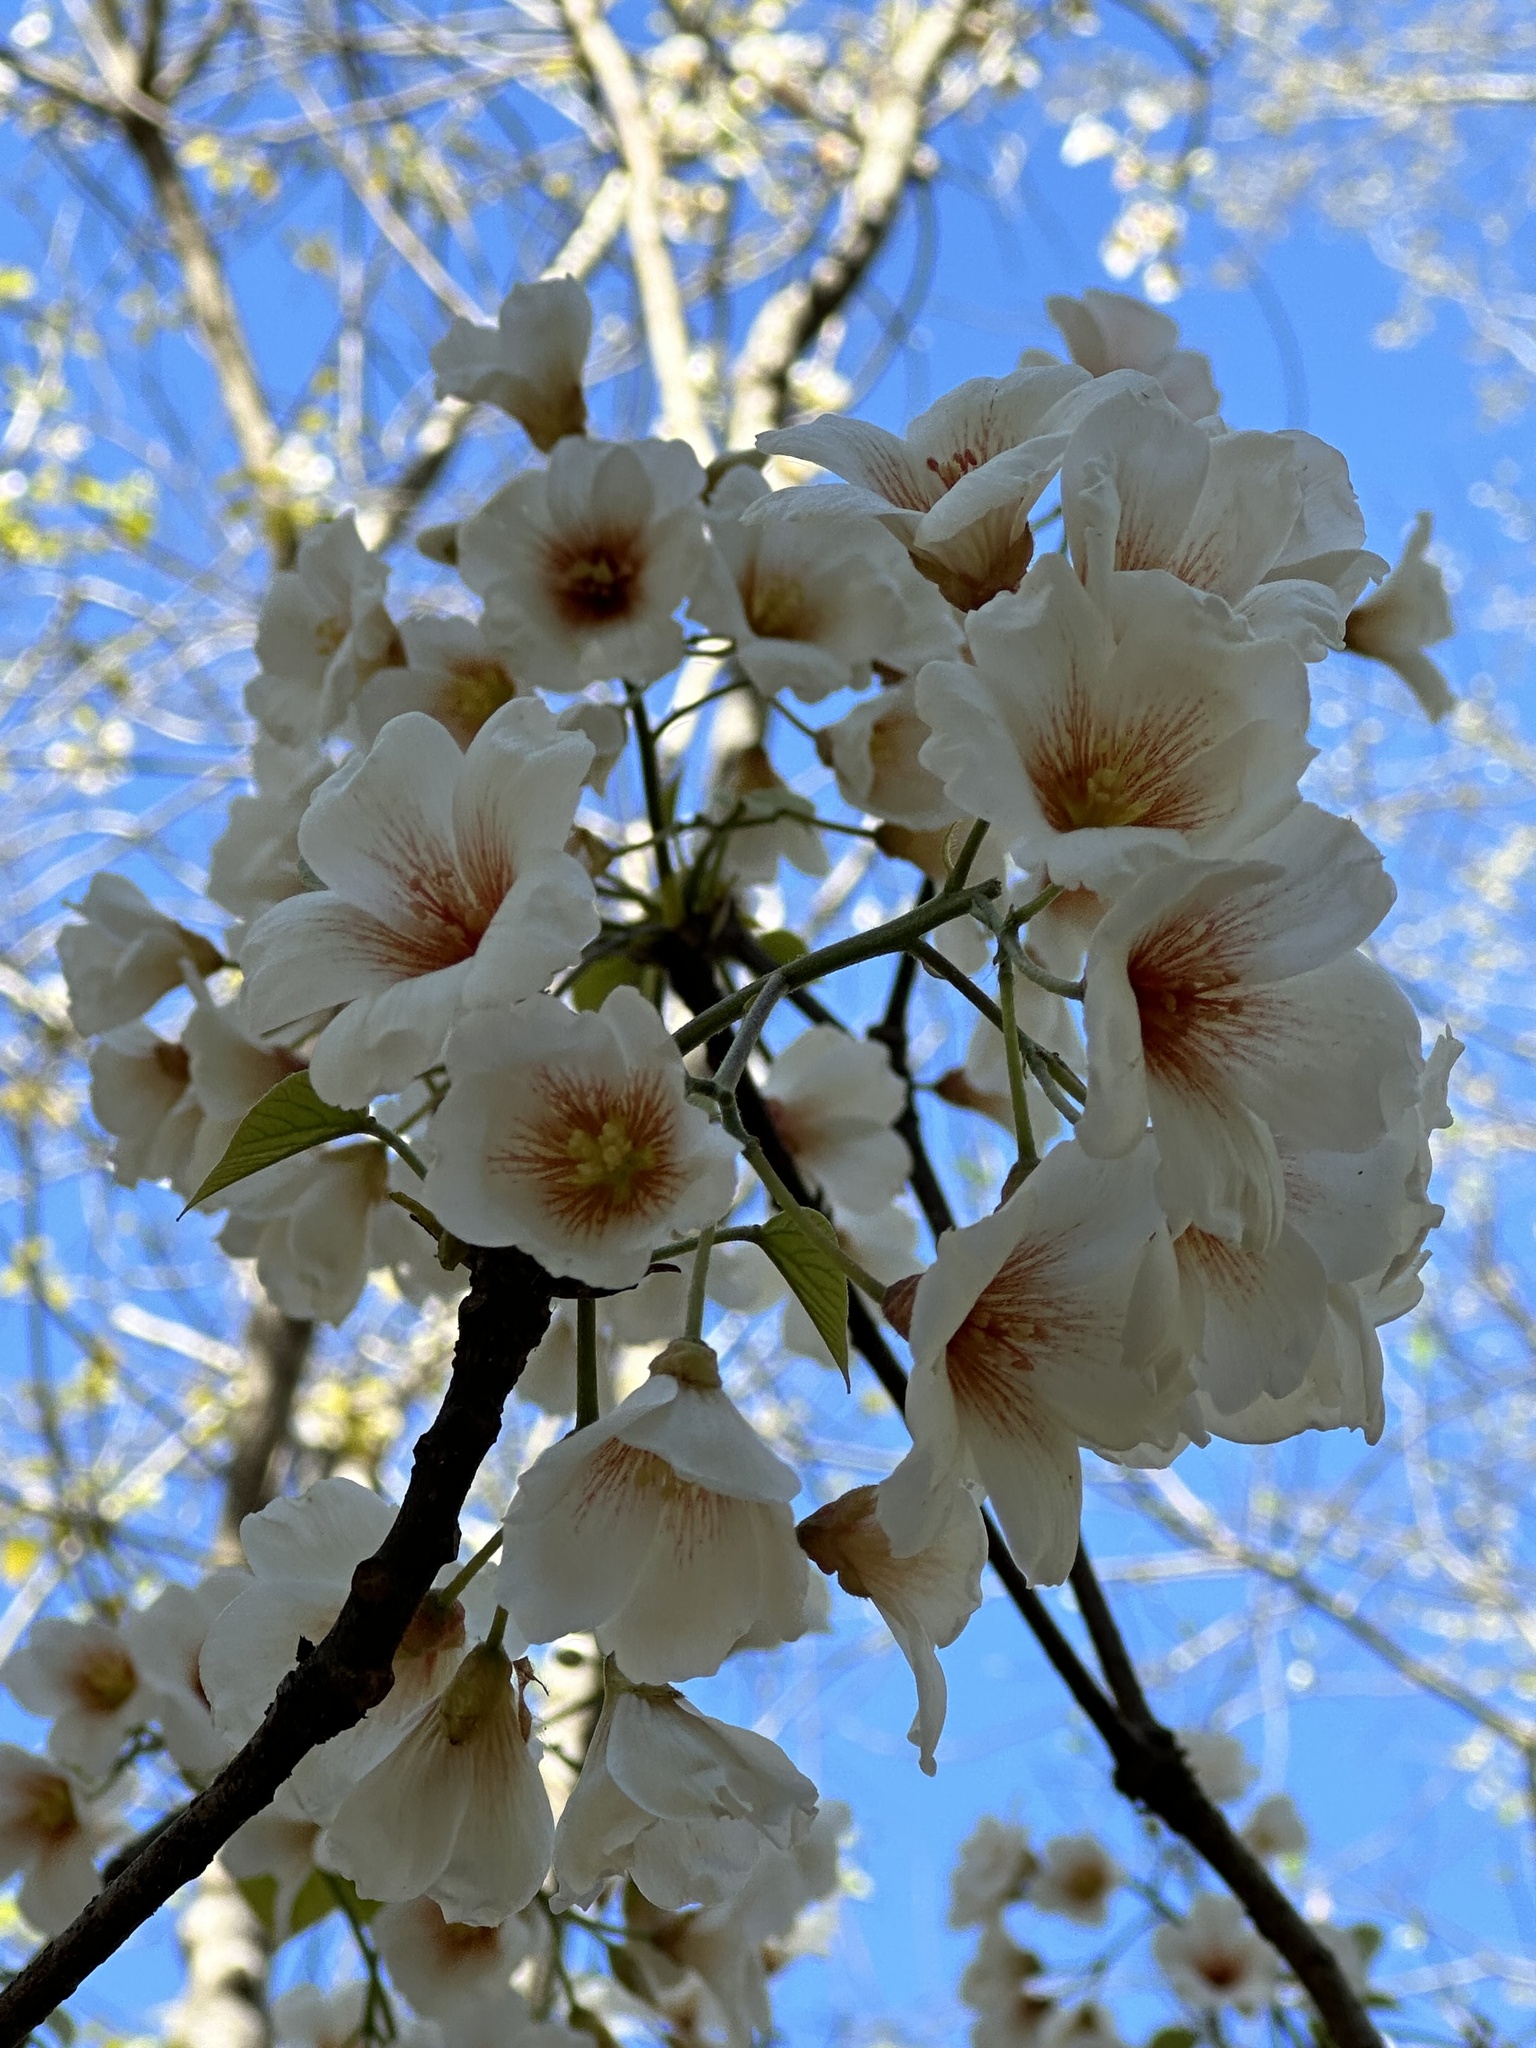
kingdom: Plantae
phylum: Tracheophyta
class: Magnoliopsida
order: Malpighiales
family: Euphorbiaceae
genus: Vernicia
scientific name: Vernicia fordii
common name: Tungoil tree
